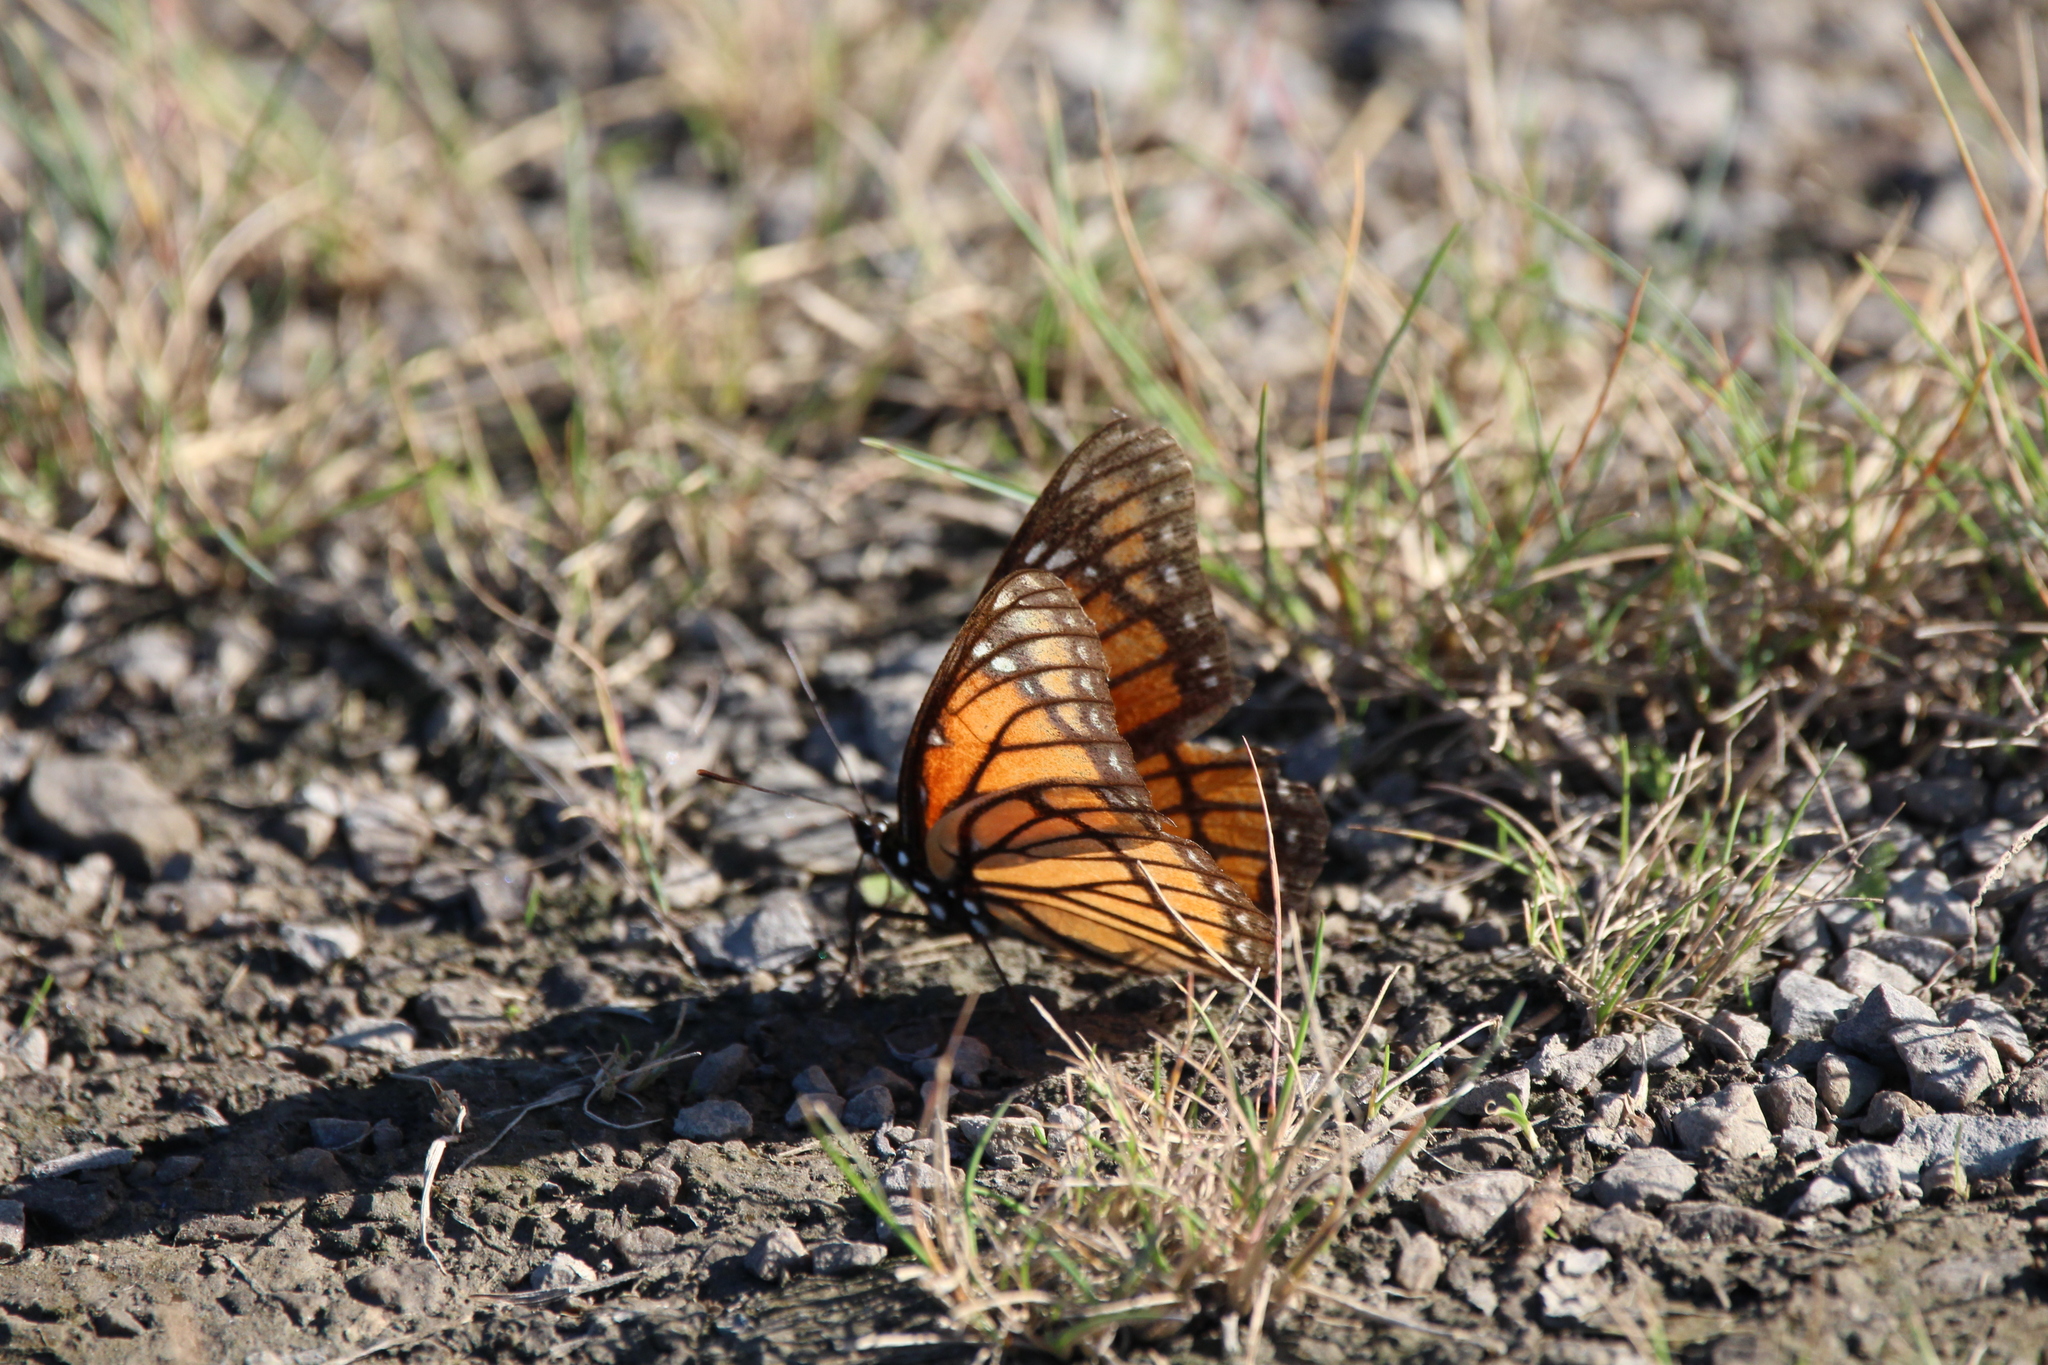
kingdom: Animalia
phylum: Arthropoda
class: Insecta
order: Lepidoptera
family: Nymphalidae
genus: Limenitis
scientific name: Limenitis archippus
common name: Viceroy
